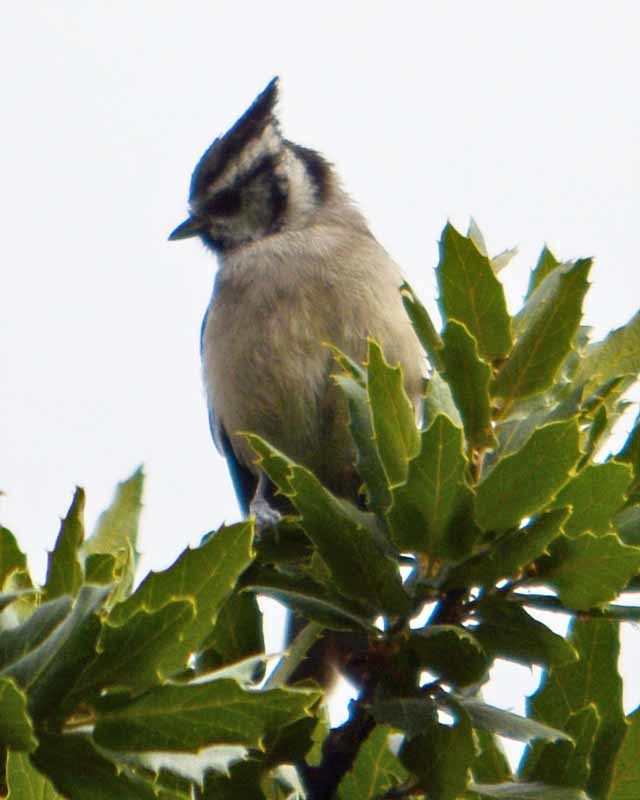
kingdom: Animalia
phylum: Chordata
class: Aves
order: Passeriformes
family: Paridae
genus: Baeolophus
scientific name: Baeolophus wollweberi
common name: Bridled titmouse
